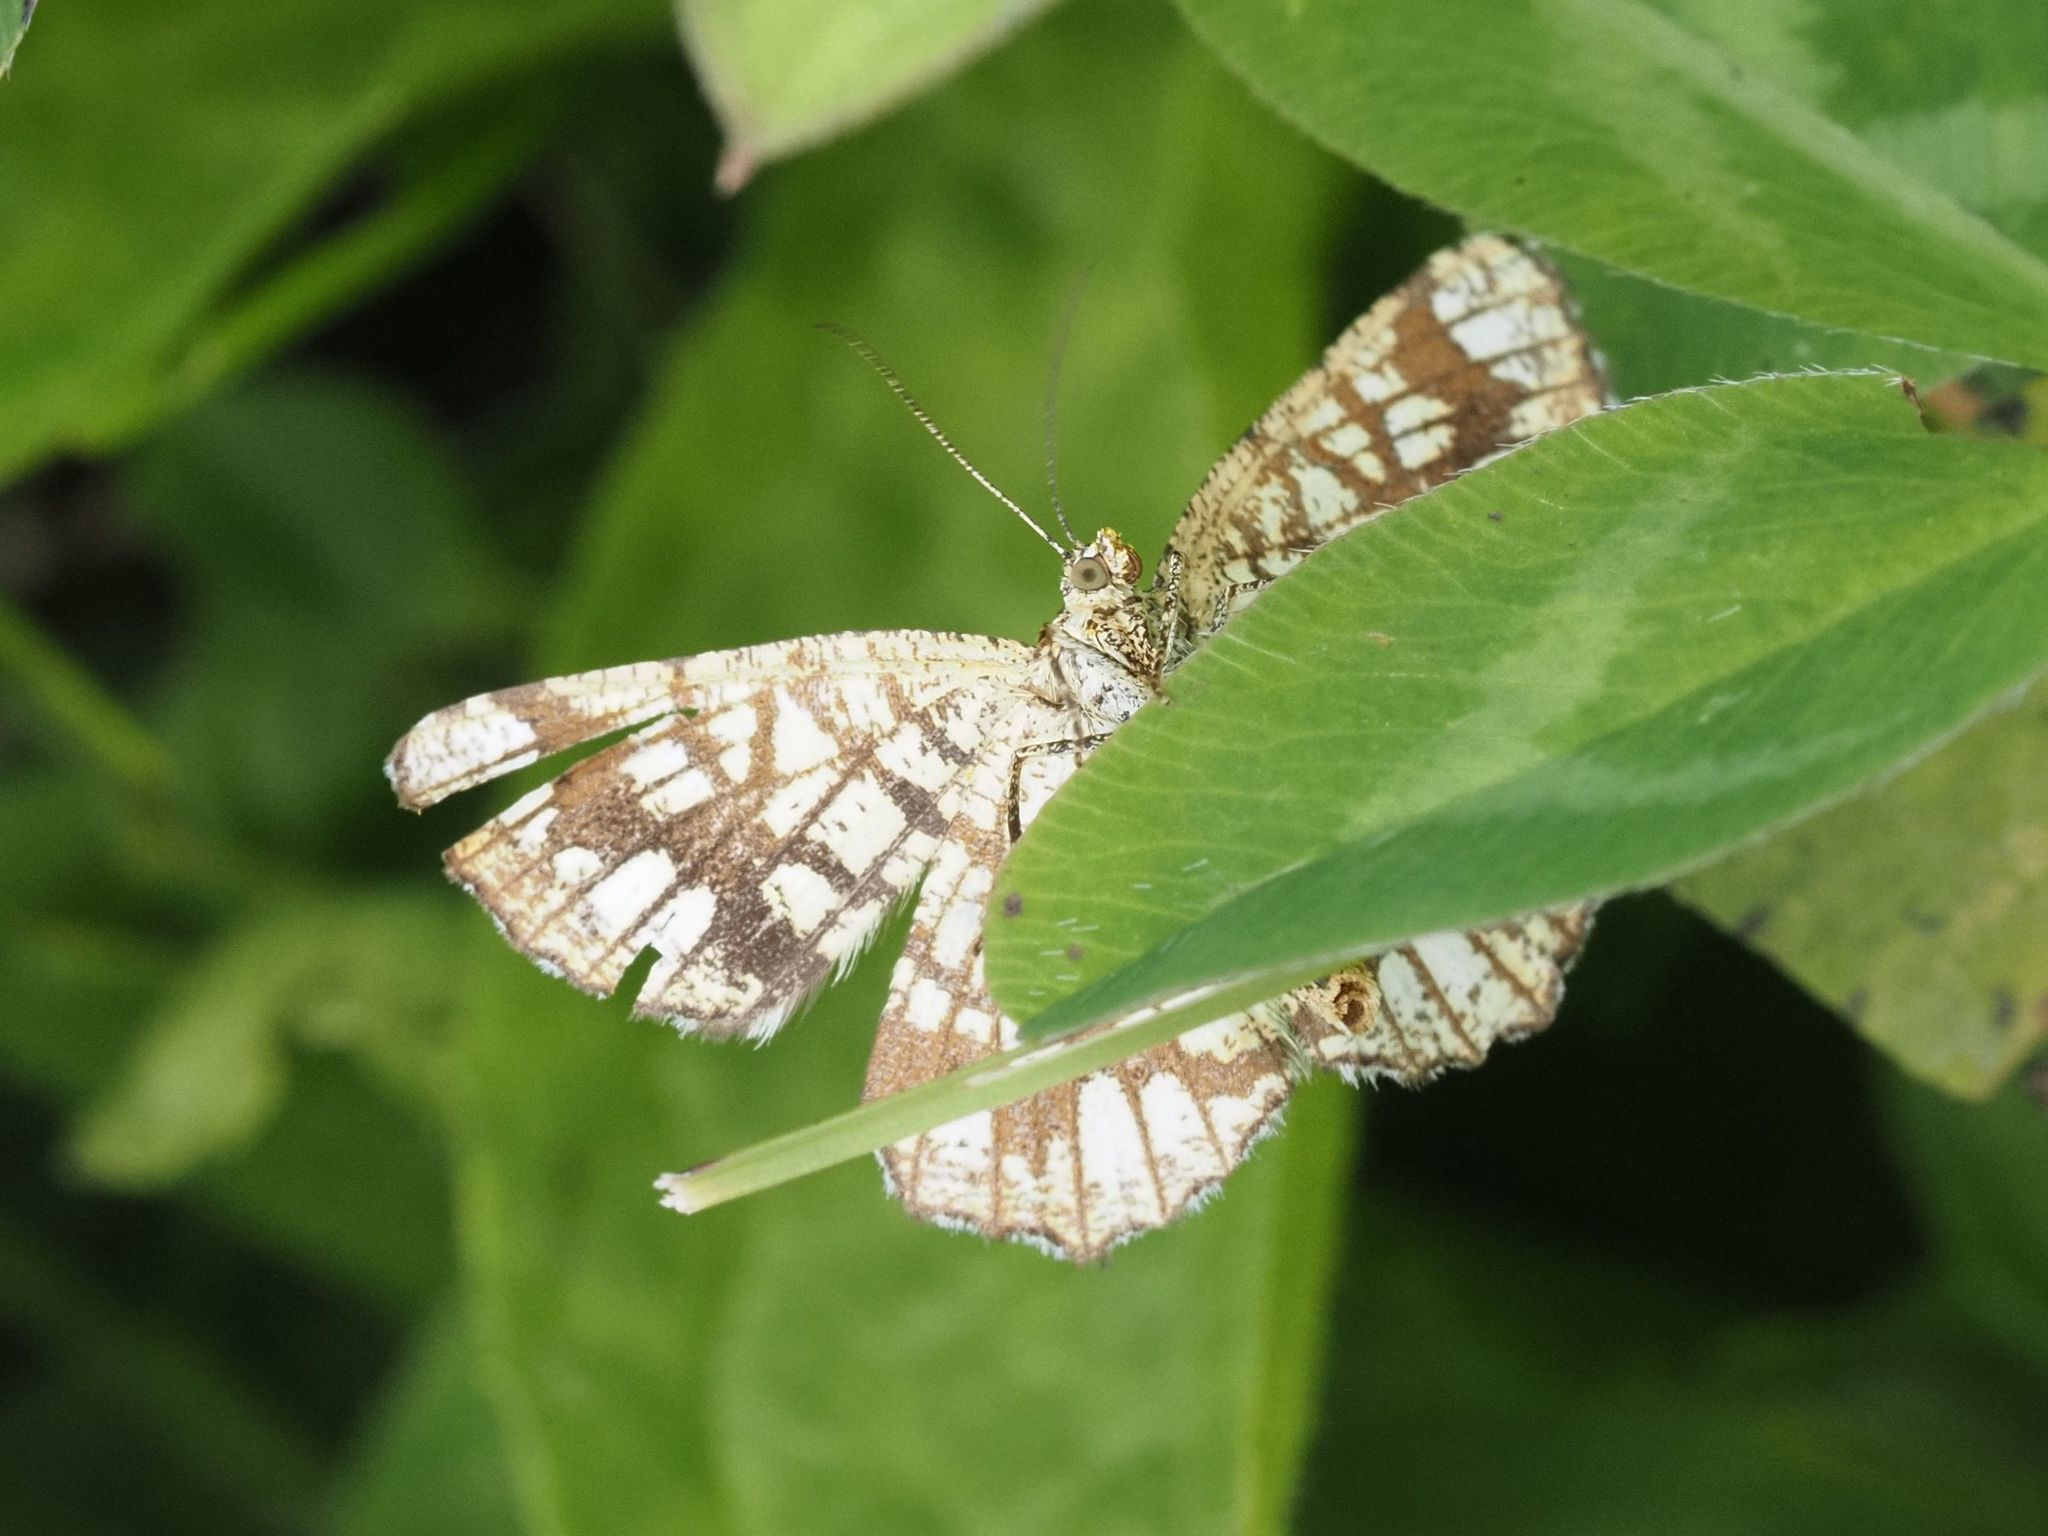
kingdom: Animalia
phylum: Arthropoda
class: Insecta
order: Lepidoptera
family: Geometridae
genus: Chiasmia
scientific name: Chiasmia clathrata
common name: Latticed heath
